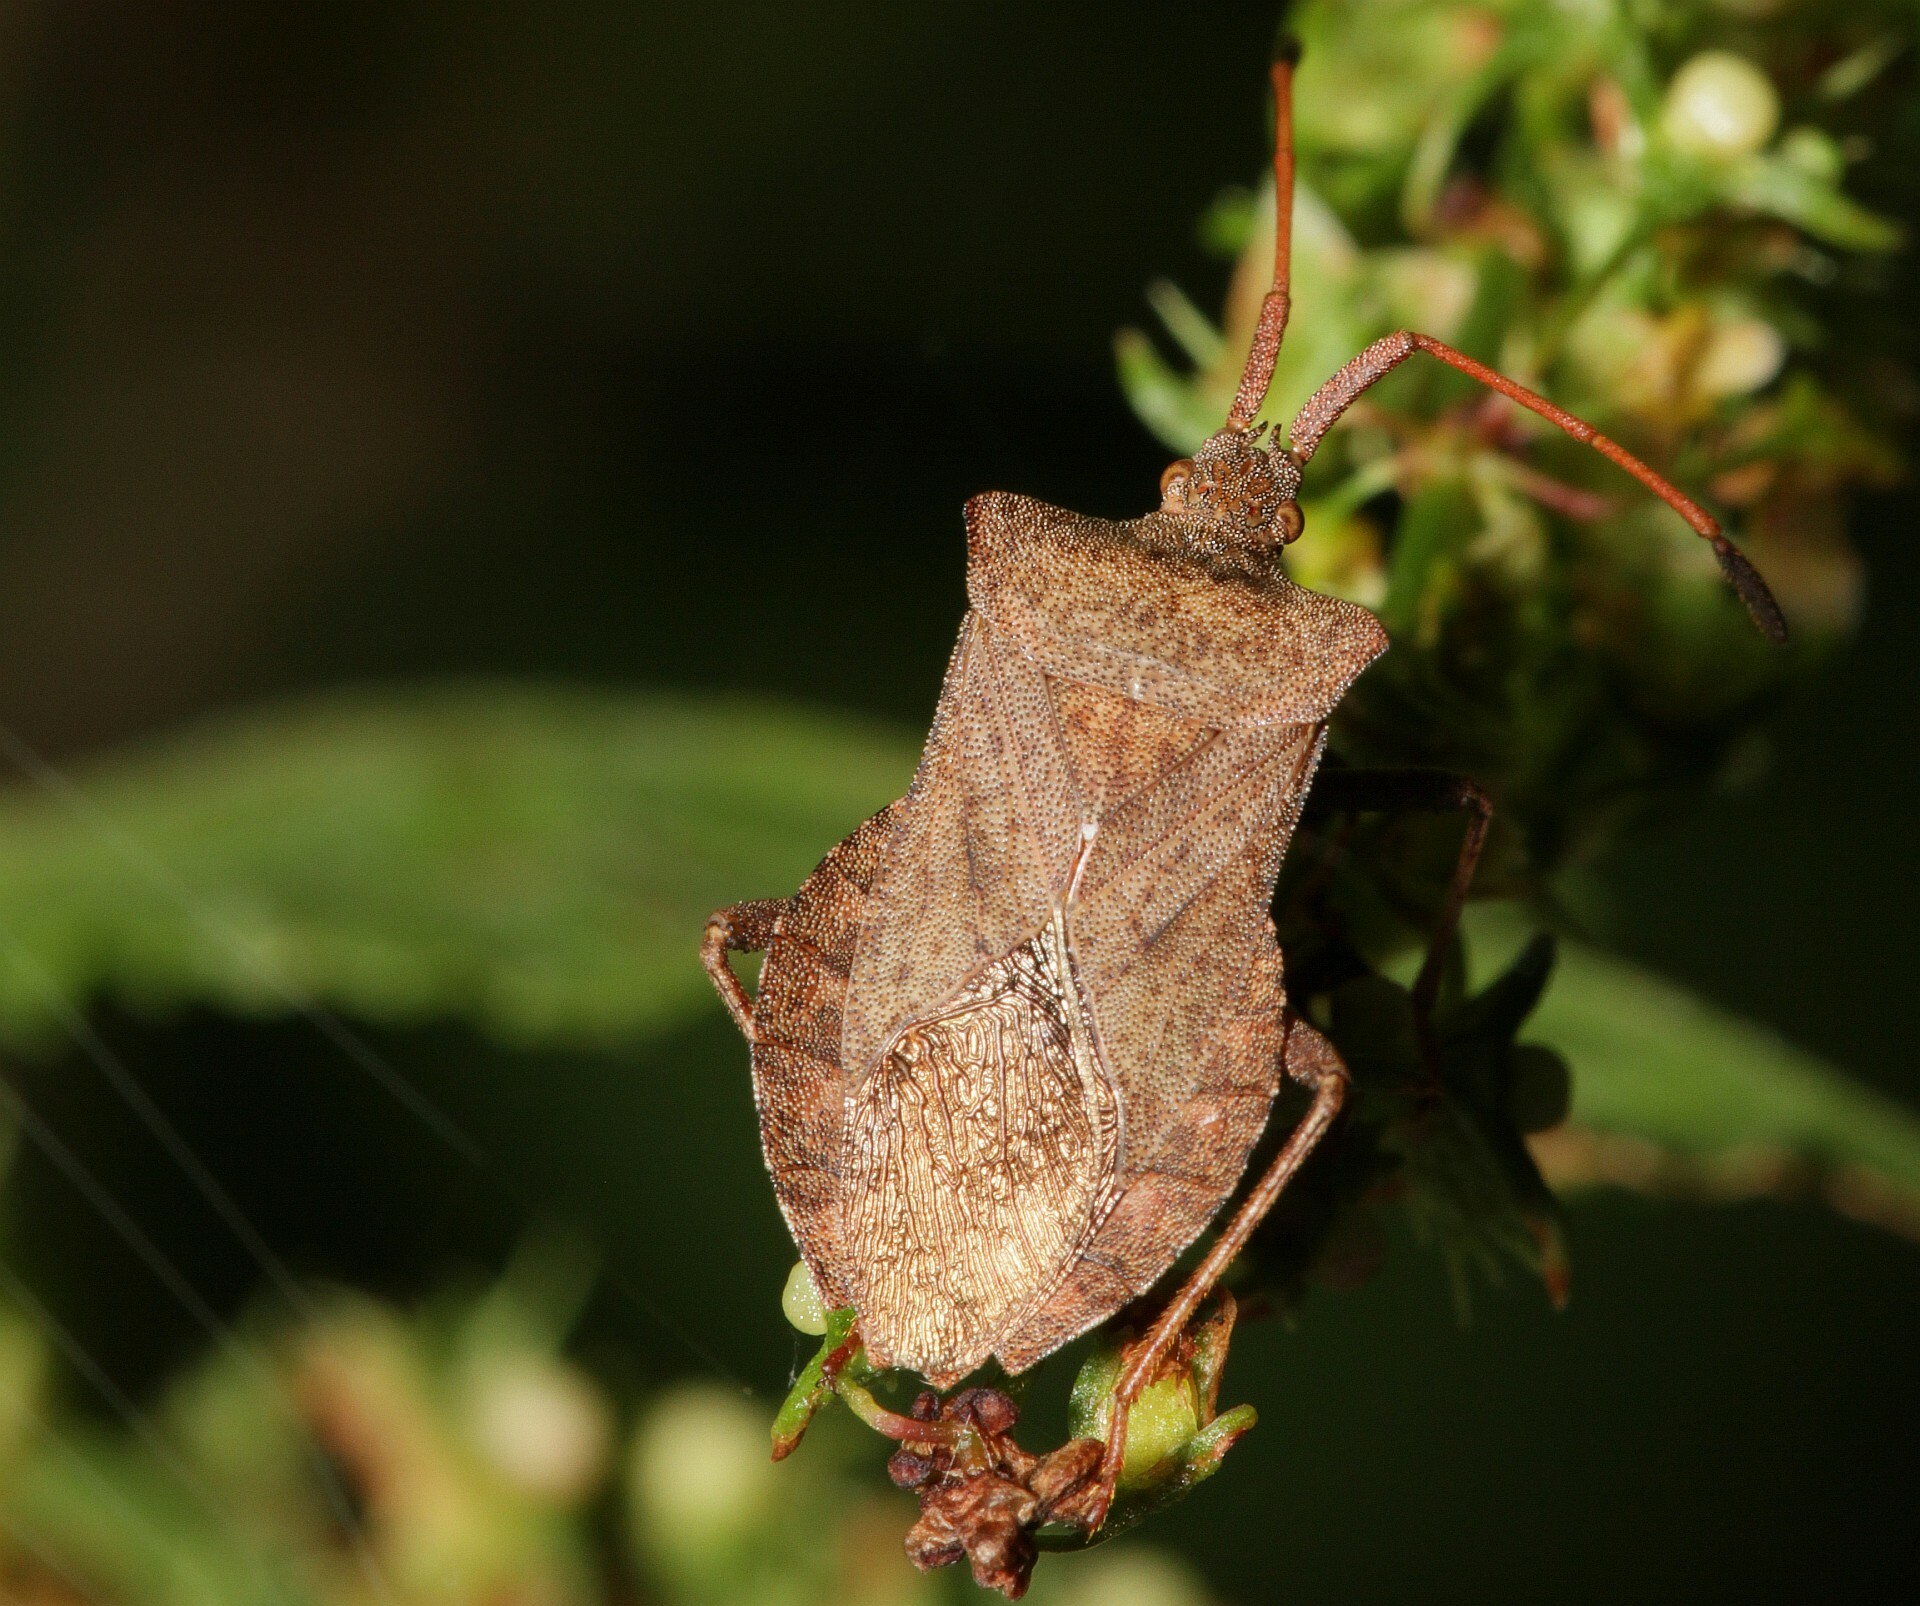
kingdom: Animalia
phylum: Arthropoda
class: Insecta
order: Hemiptera
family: Coreidae
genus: Coreus
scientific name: Coreus marginatus
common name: Dock bug
